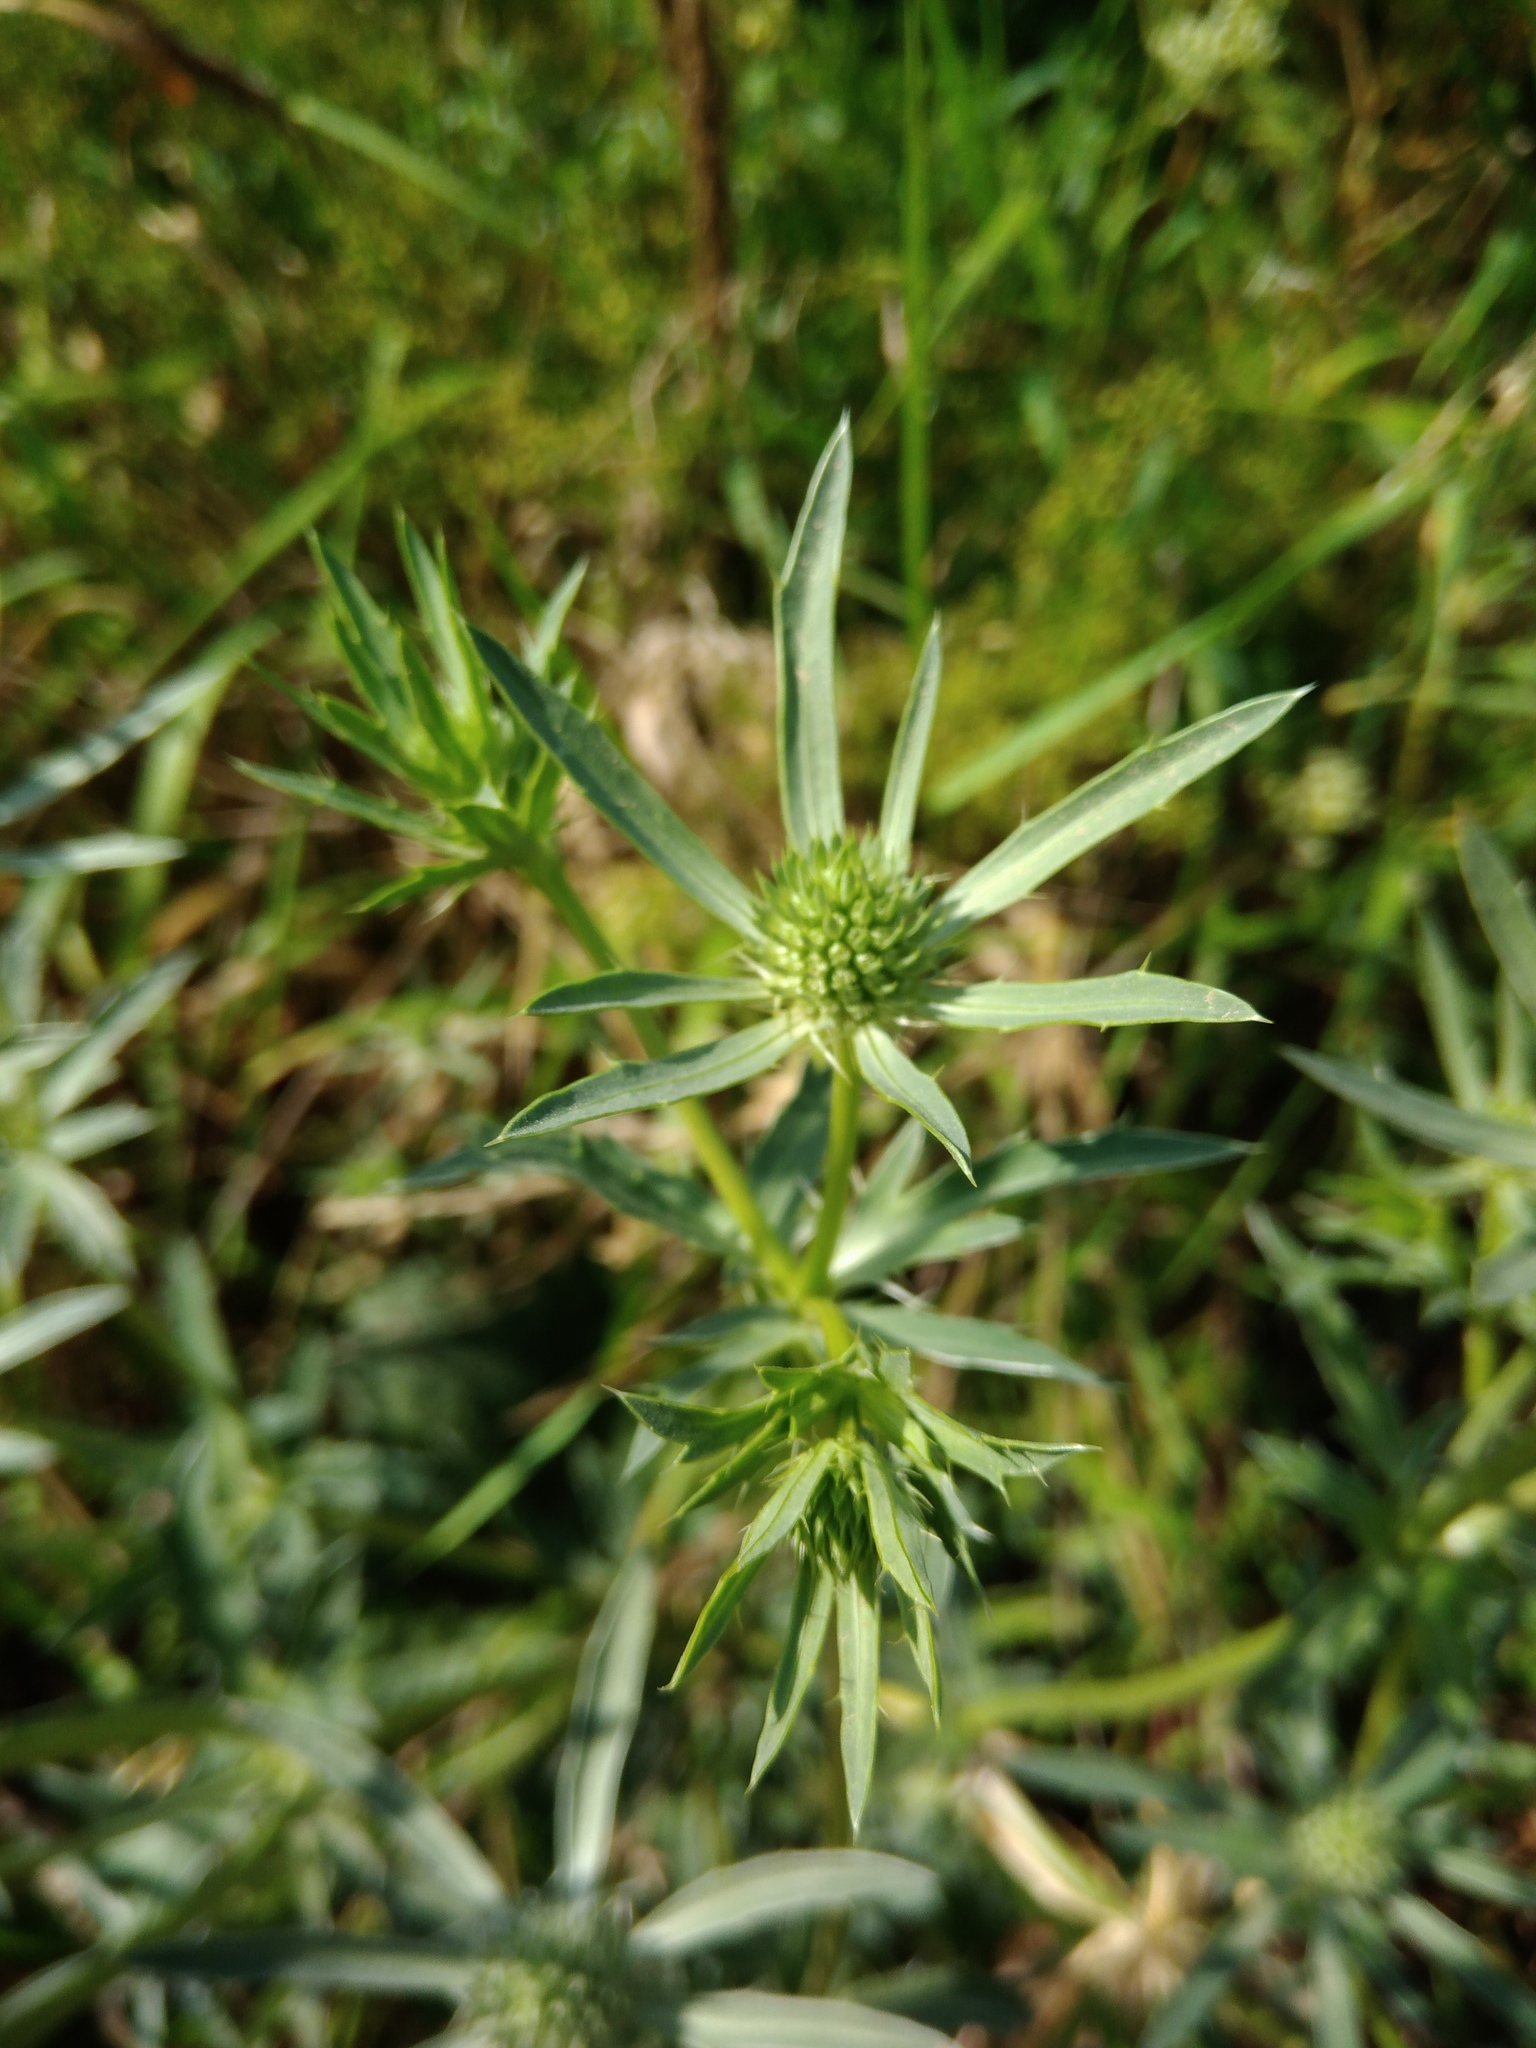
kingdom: Plantae
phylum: Tracheophyta
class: Magnoliopsida
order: Apiales
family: Apiaceae
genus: Eryngium
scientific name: Eryngium planum
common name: Blue eryngo
